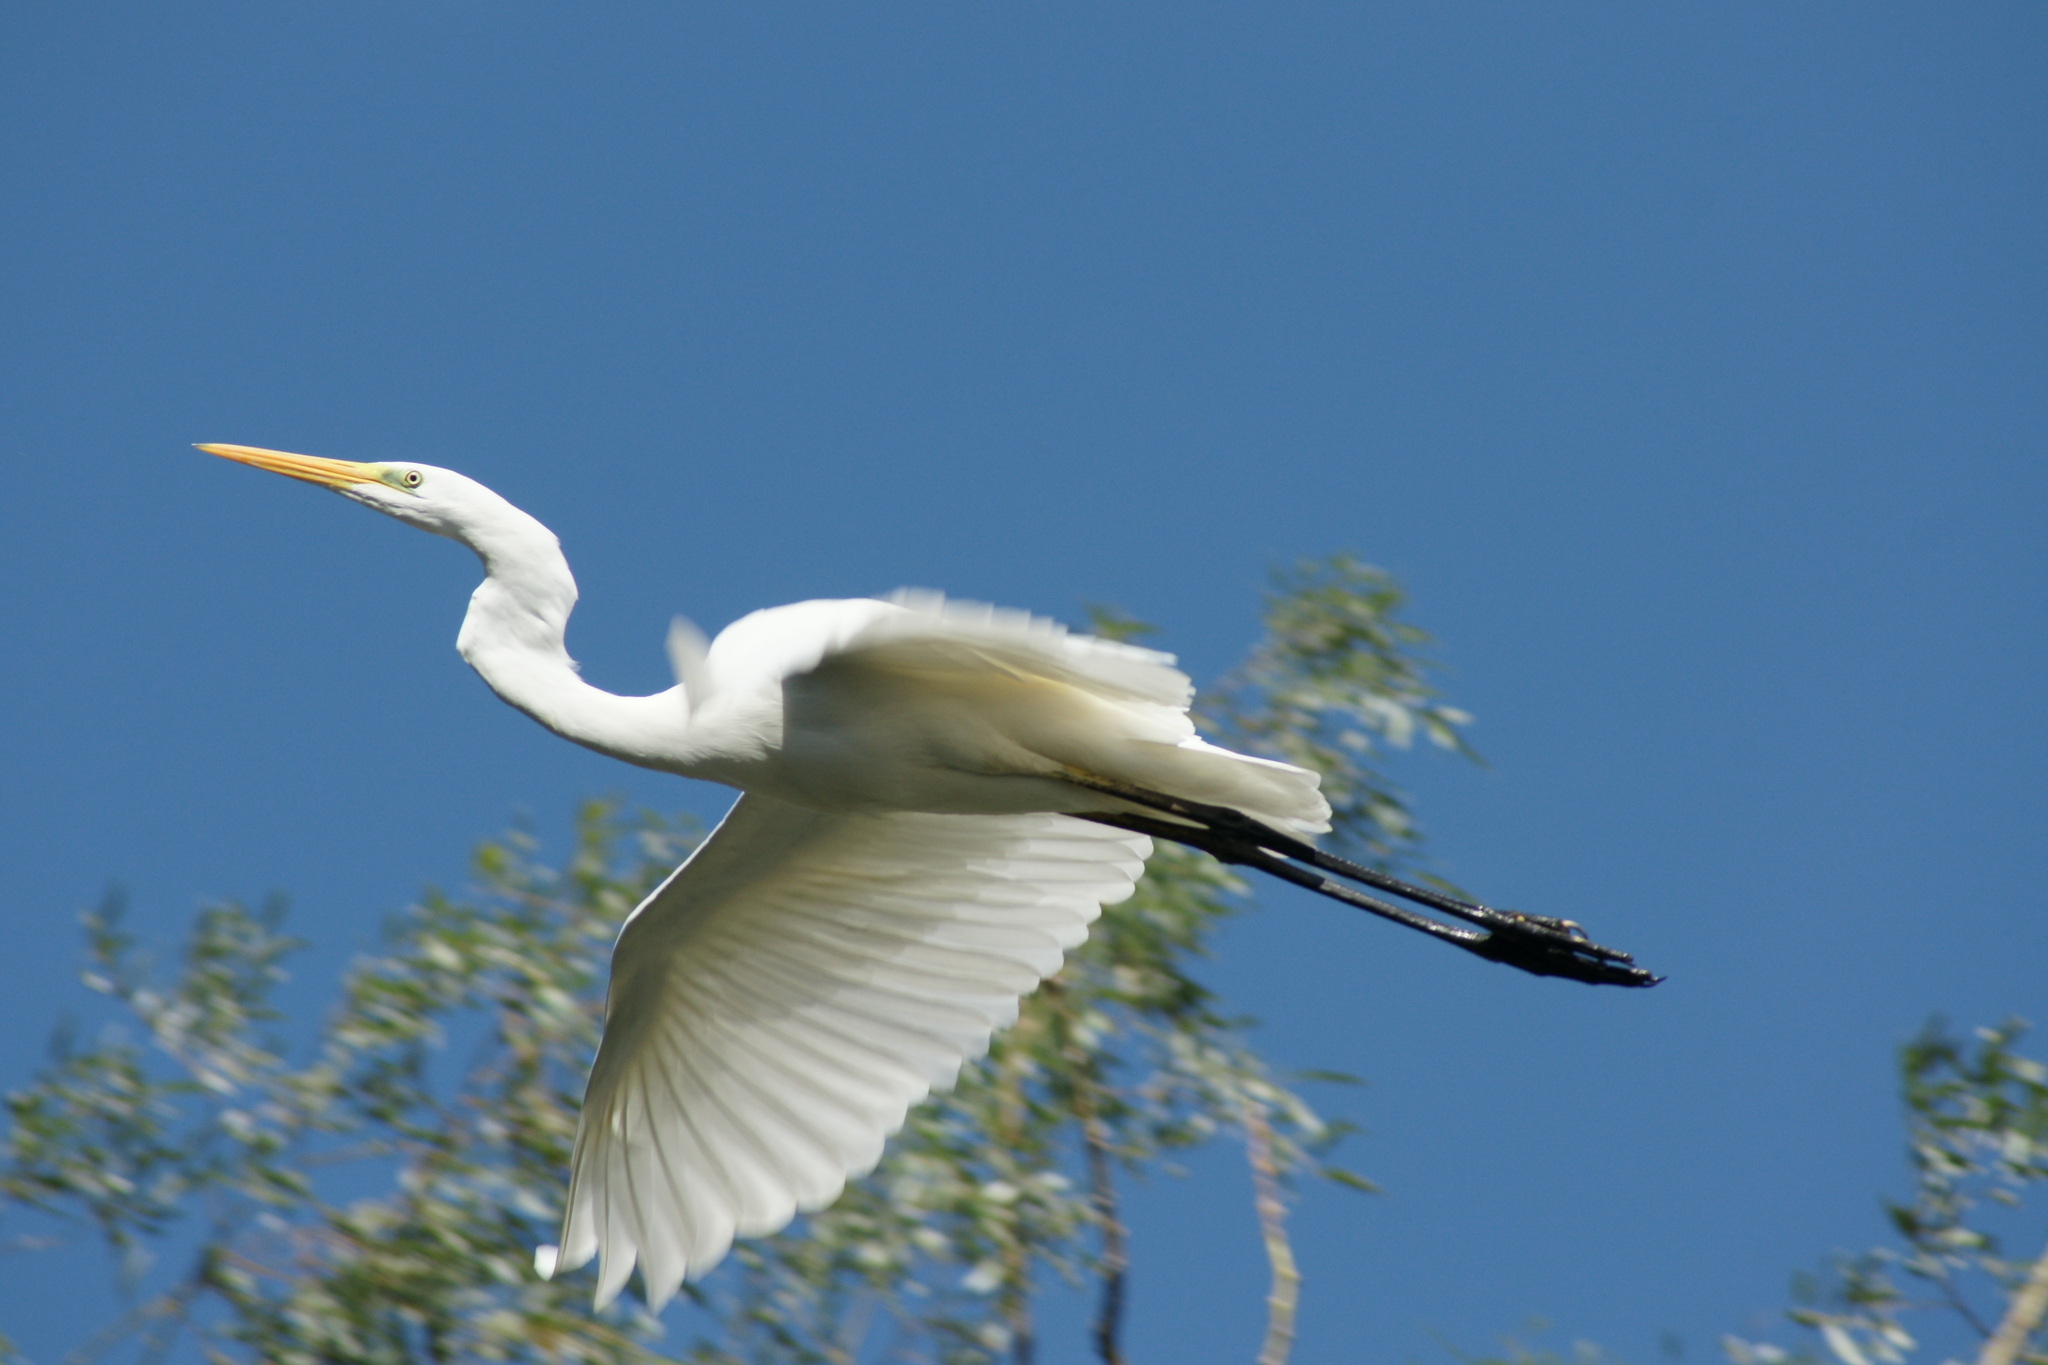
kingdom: Animalia
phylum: Chordata
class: Aves
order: Pelecaniformes
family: Ardeidae
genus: Ardea
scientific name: Ardea alba
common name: Great egret
